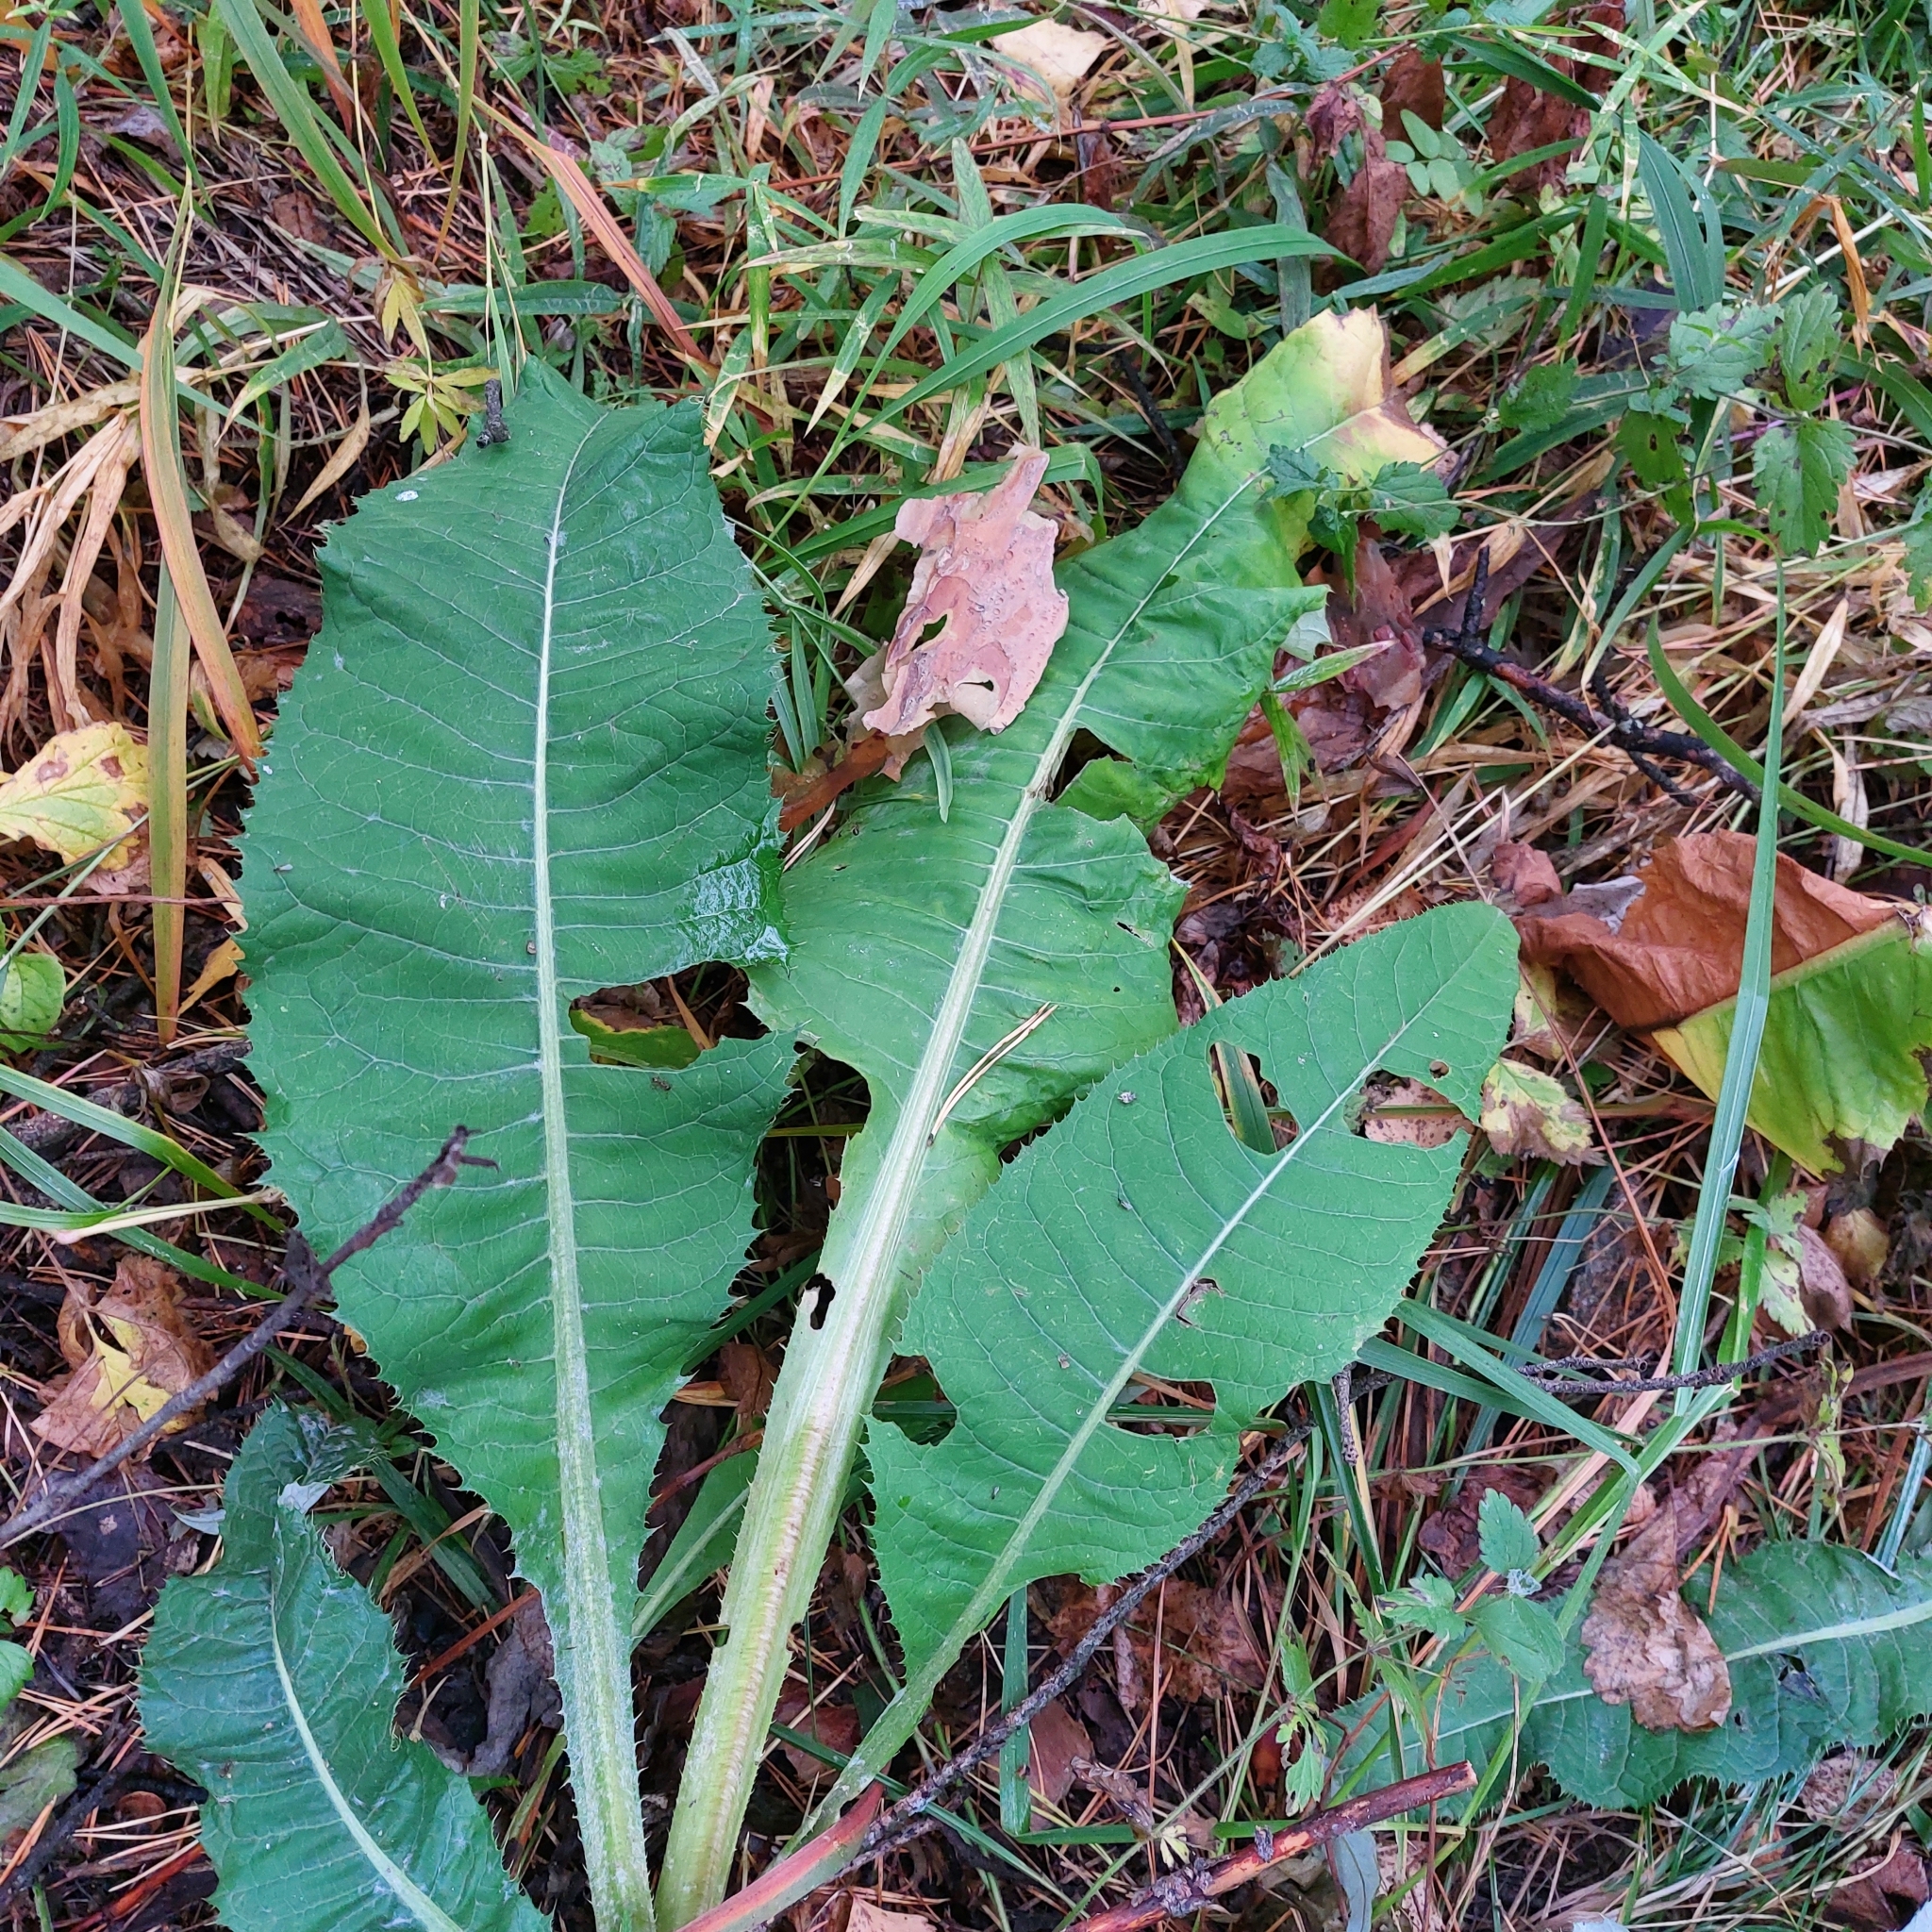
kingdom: Plantae
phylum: Tracheophyta
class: Magnoliopsida
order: Asterales
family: Asteraceae
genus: Cirsium
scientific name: Cirsium heterophyllum
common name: Melancholy thistle
